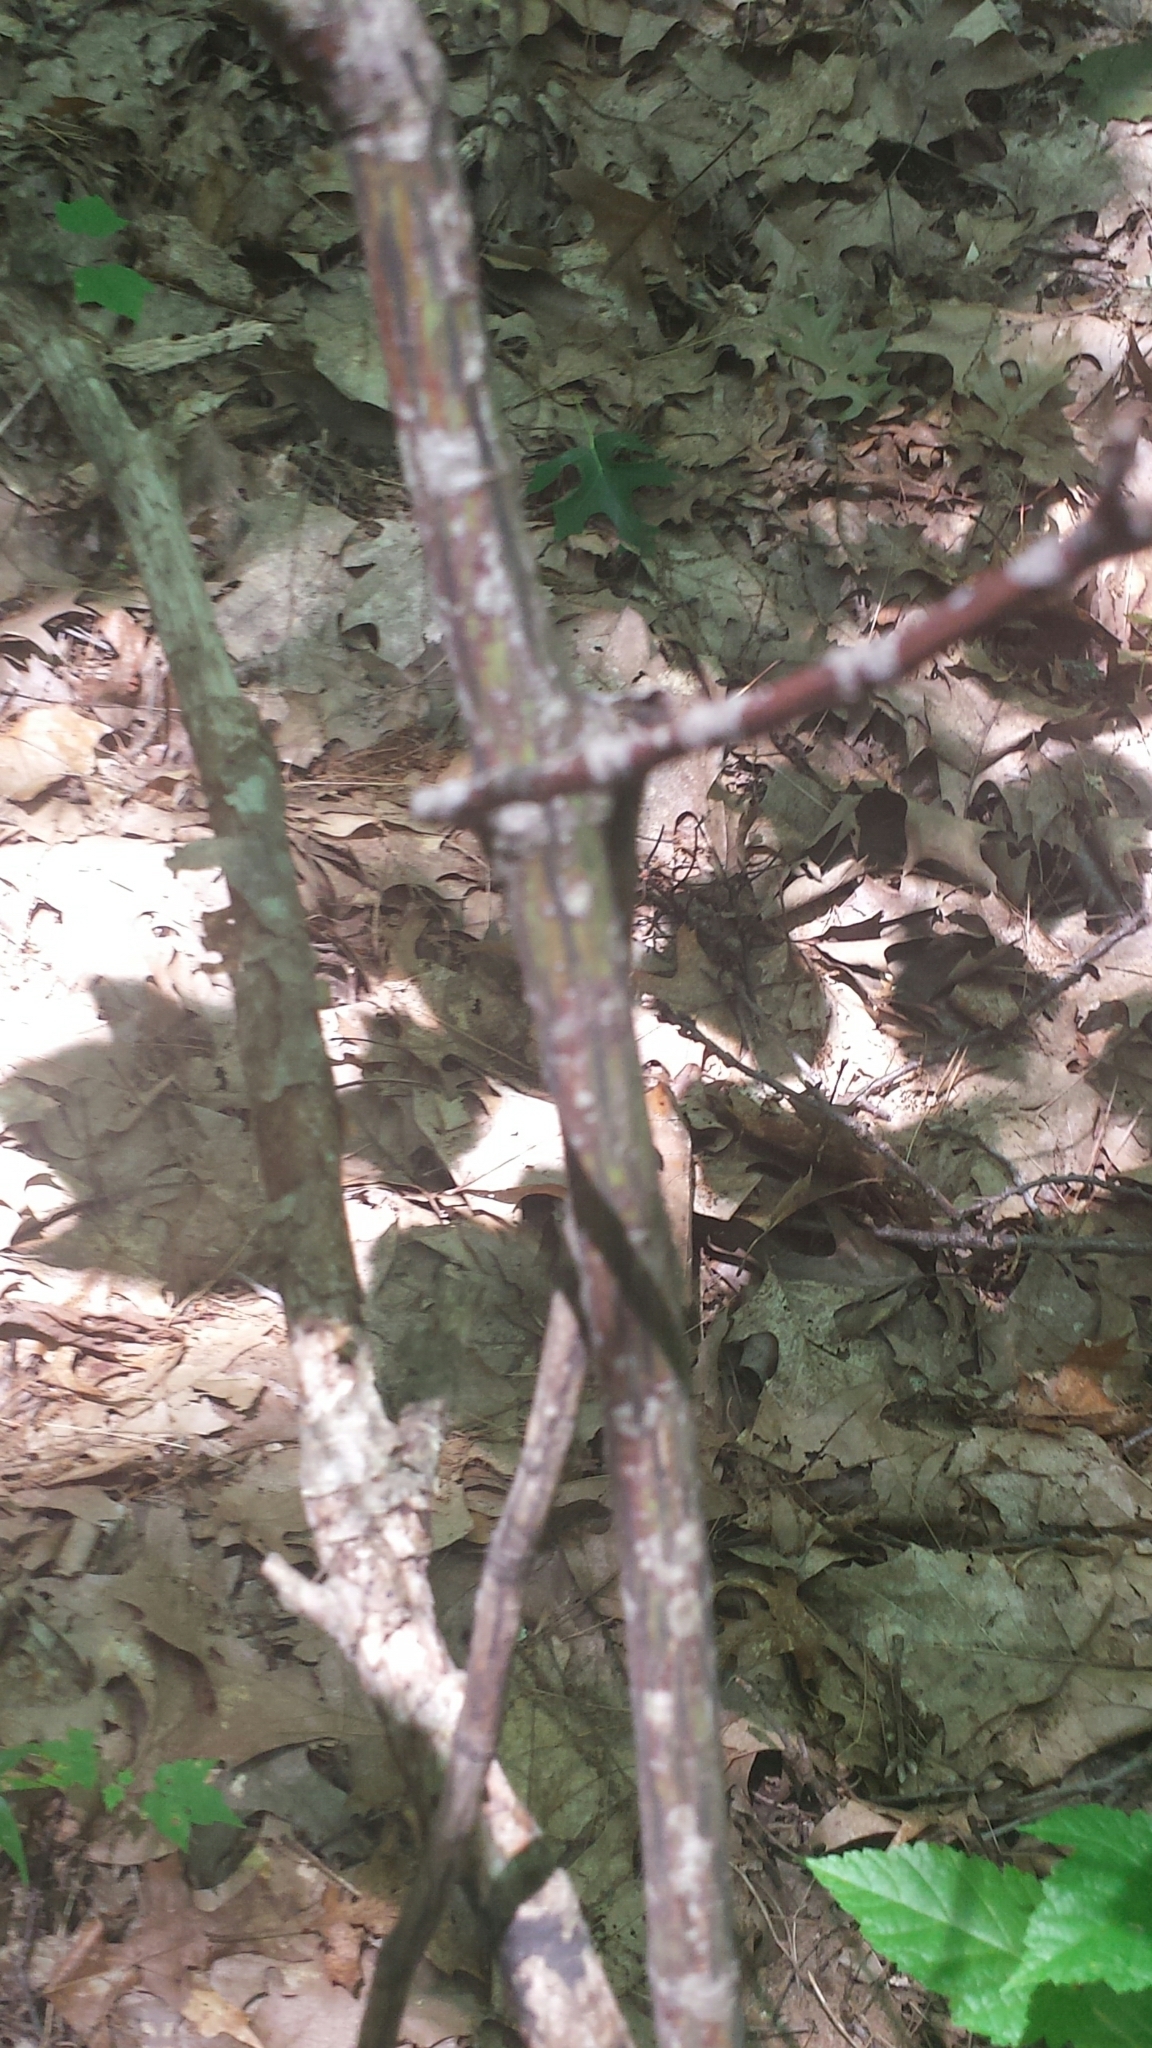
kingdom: Plantae
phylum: Tracheophyta
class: Magnoliopsida
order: Sapindales
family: Sapindaceae
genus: Acer
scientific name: Acer pensylvanicum
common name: Moosewood
